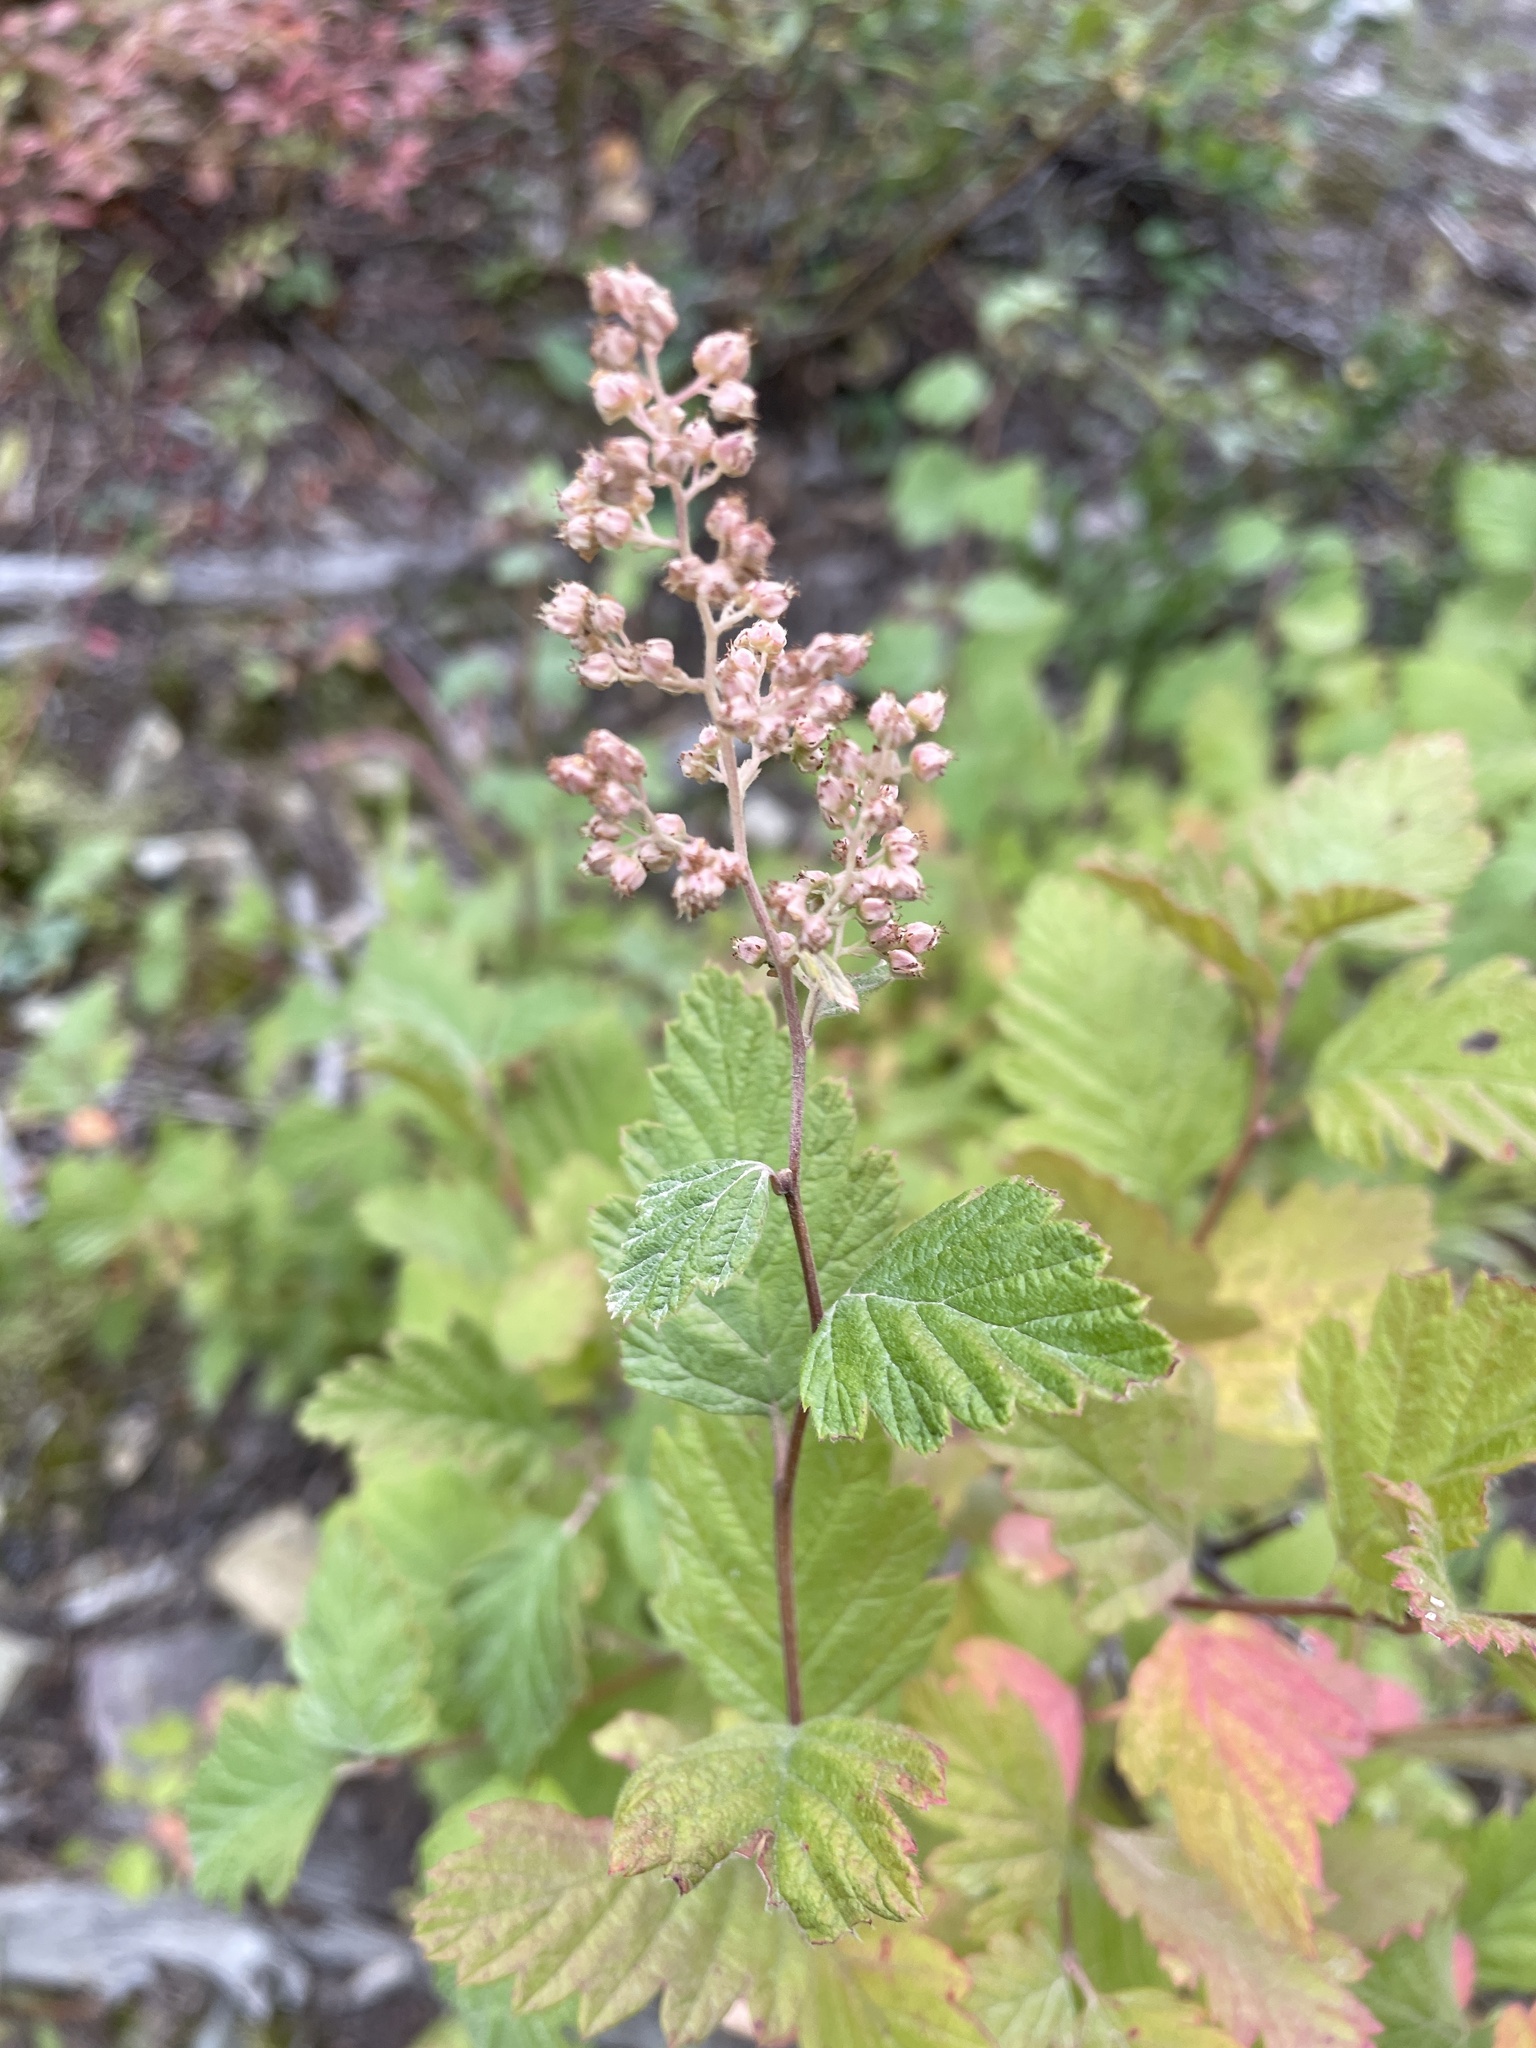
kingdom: Plantae
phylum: Tracheophyta
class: Magnoliopsida
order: Rosales
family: Rosaceae
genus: Holodiscus
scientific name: Holodiscus discolor
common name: Oceanspray
